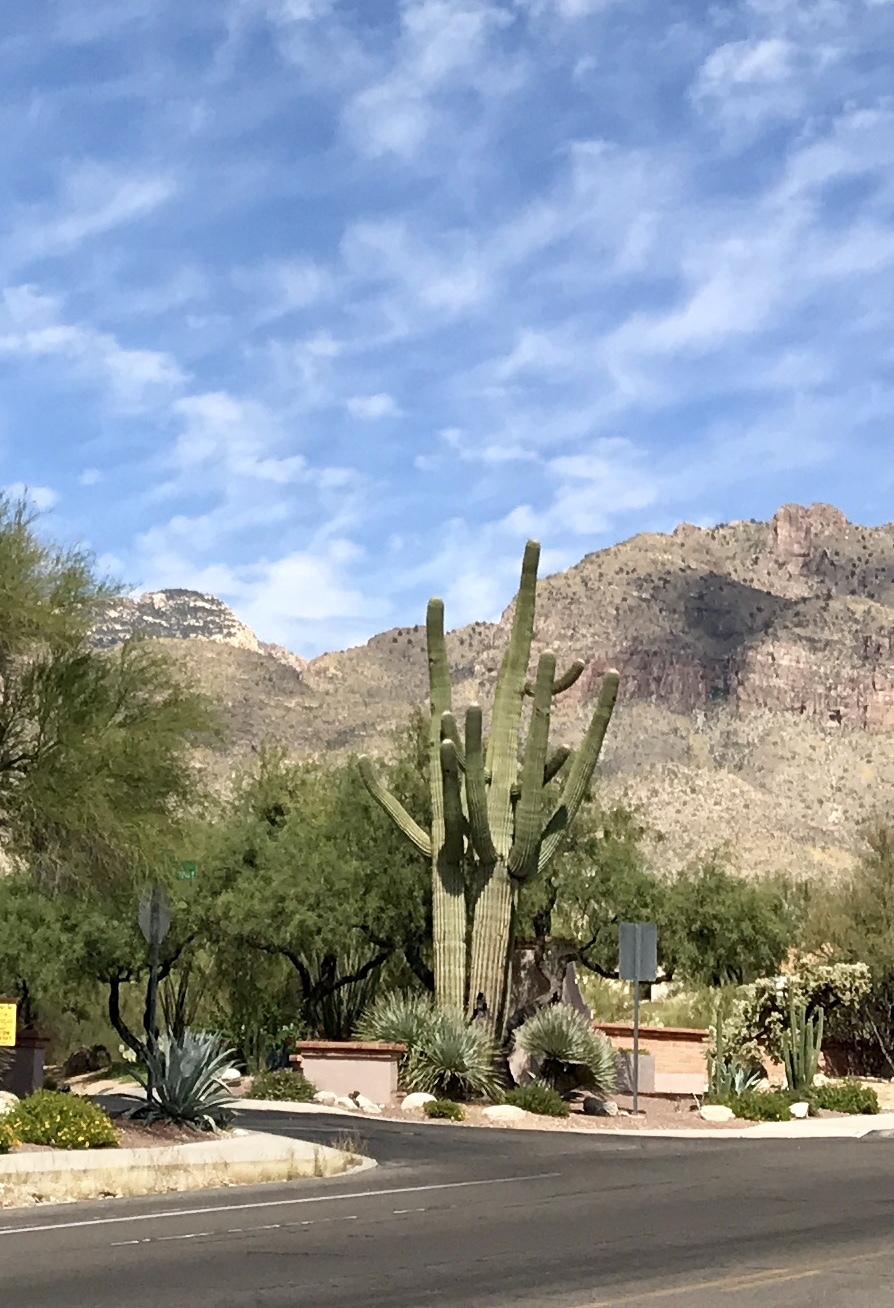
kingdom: Plantae
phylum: Tracheophyta
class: Magnoliopsida
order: Caryophyllales
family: Cactaceae
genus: Carnegiea
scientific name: Carnegiea gigantea
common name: Saguaro
